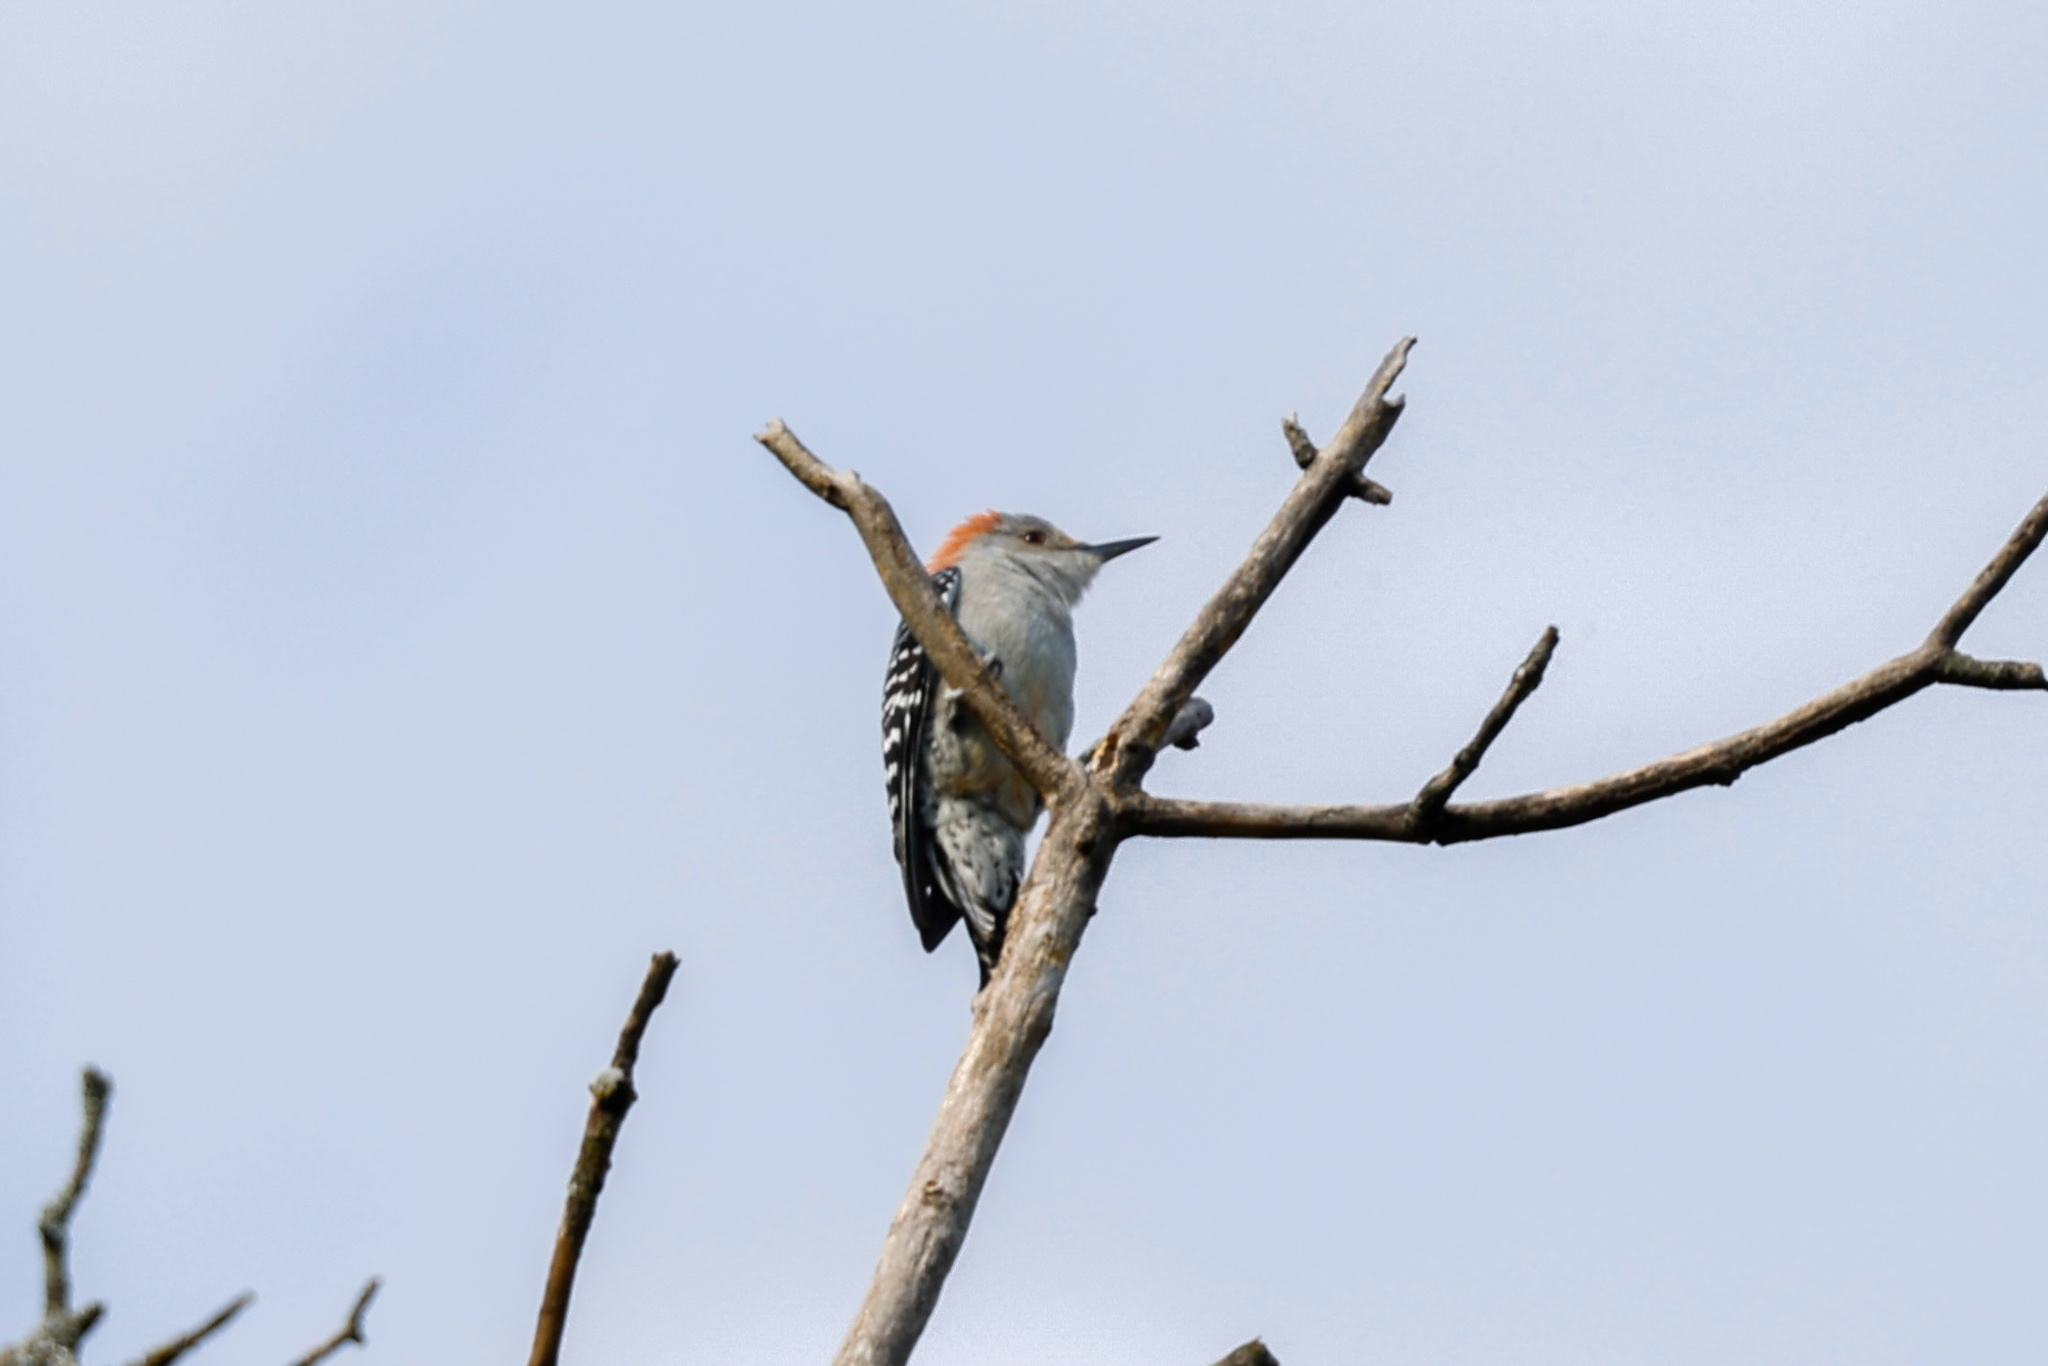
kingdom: Animalia
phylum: Chordata
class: Aves
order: Piciformes
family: Picidae
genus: Melanerpes
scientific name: Melanerpes carolinus
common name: Red-bellied woodpecker
